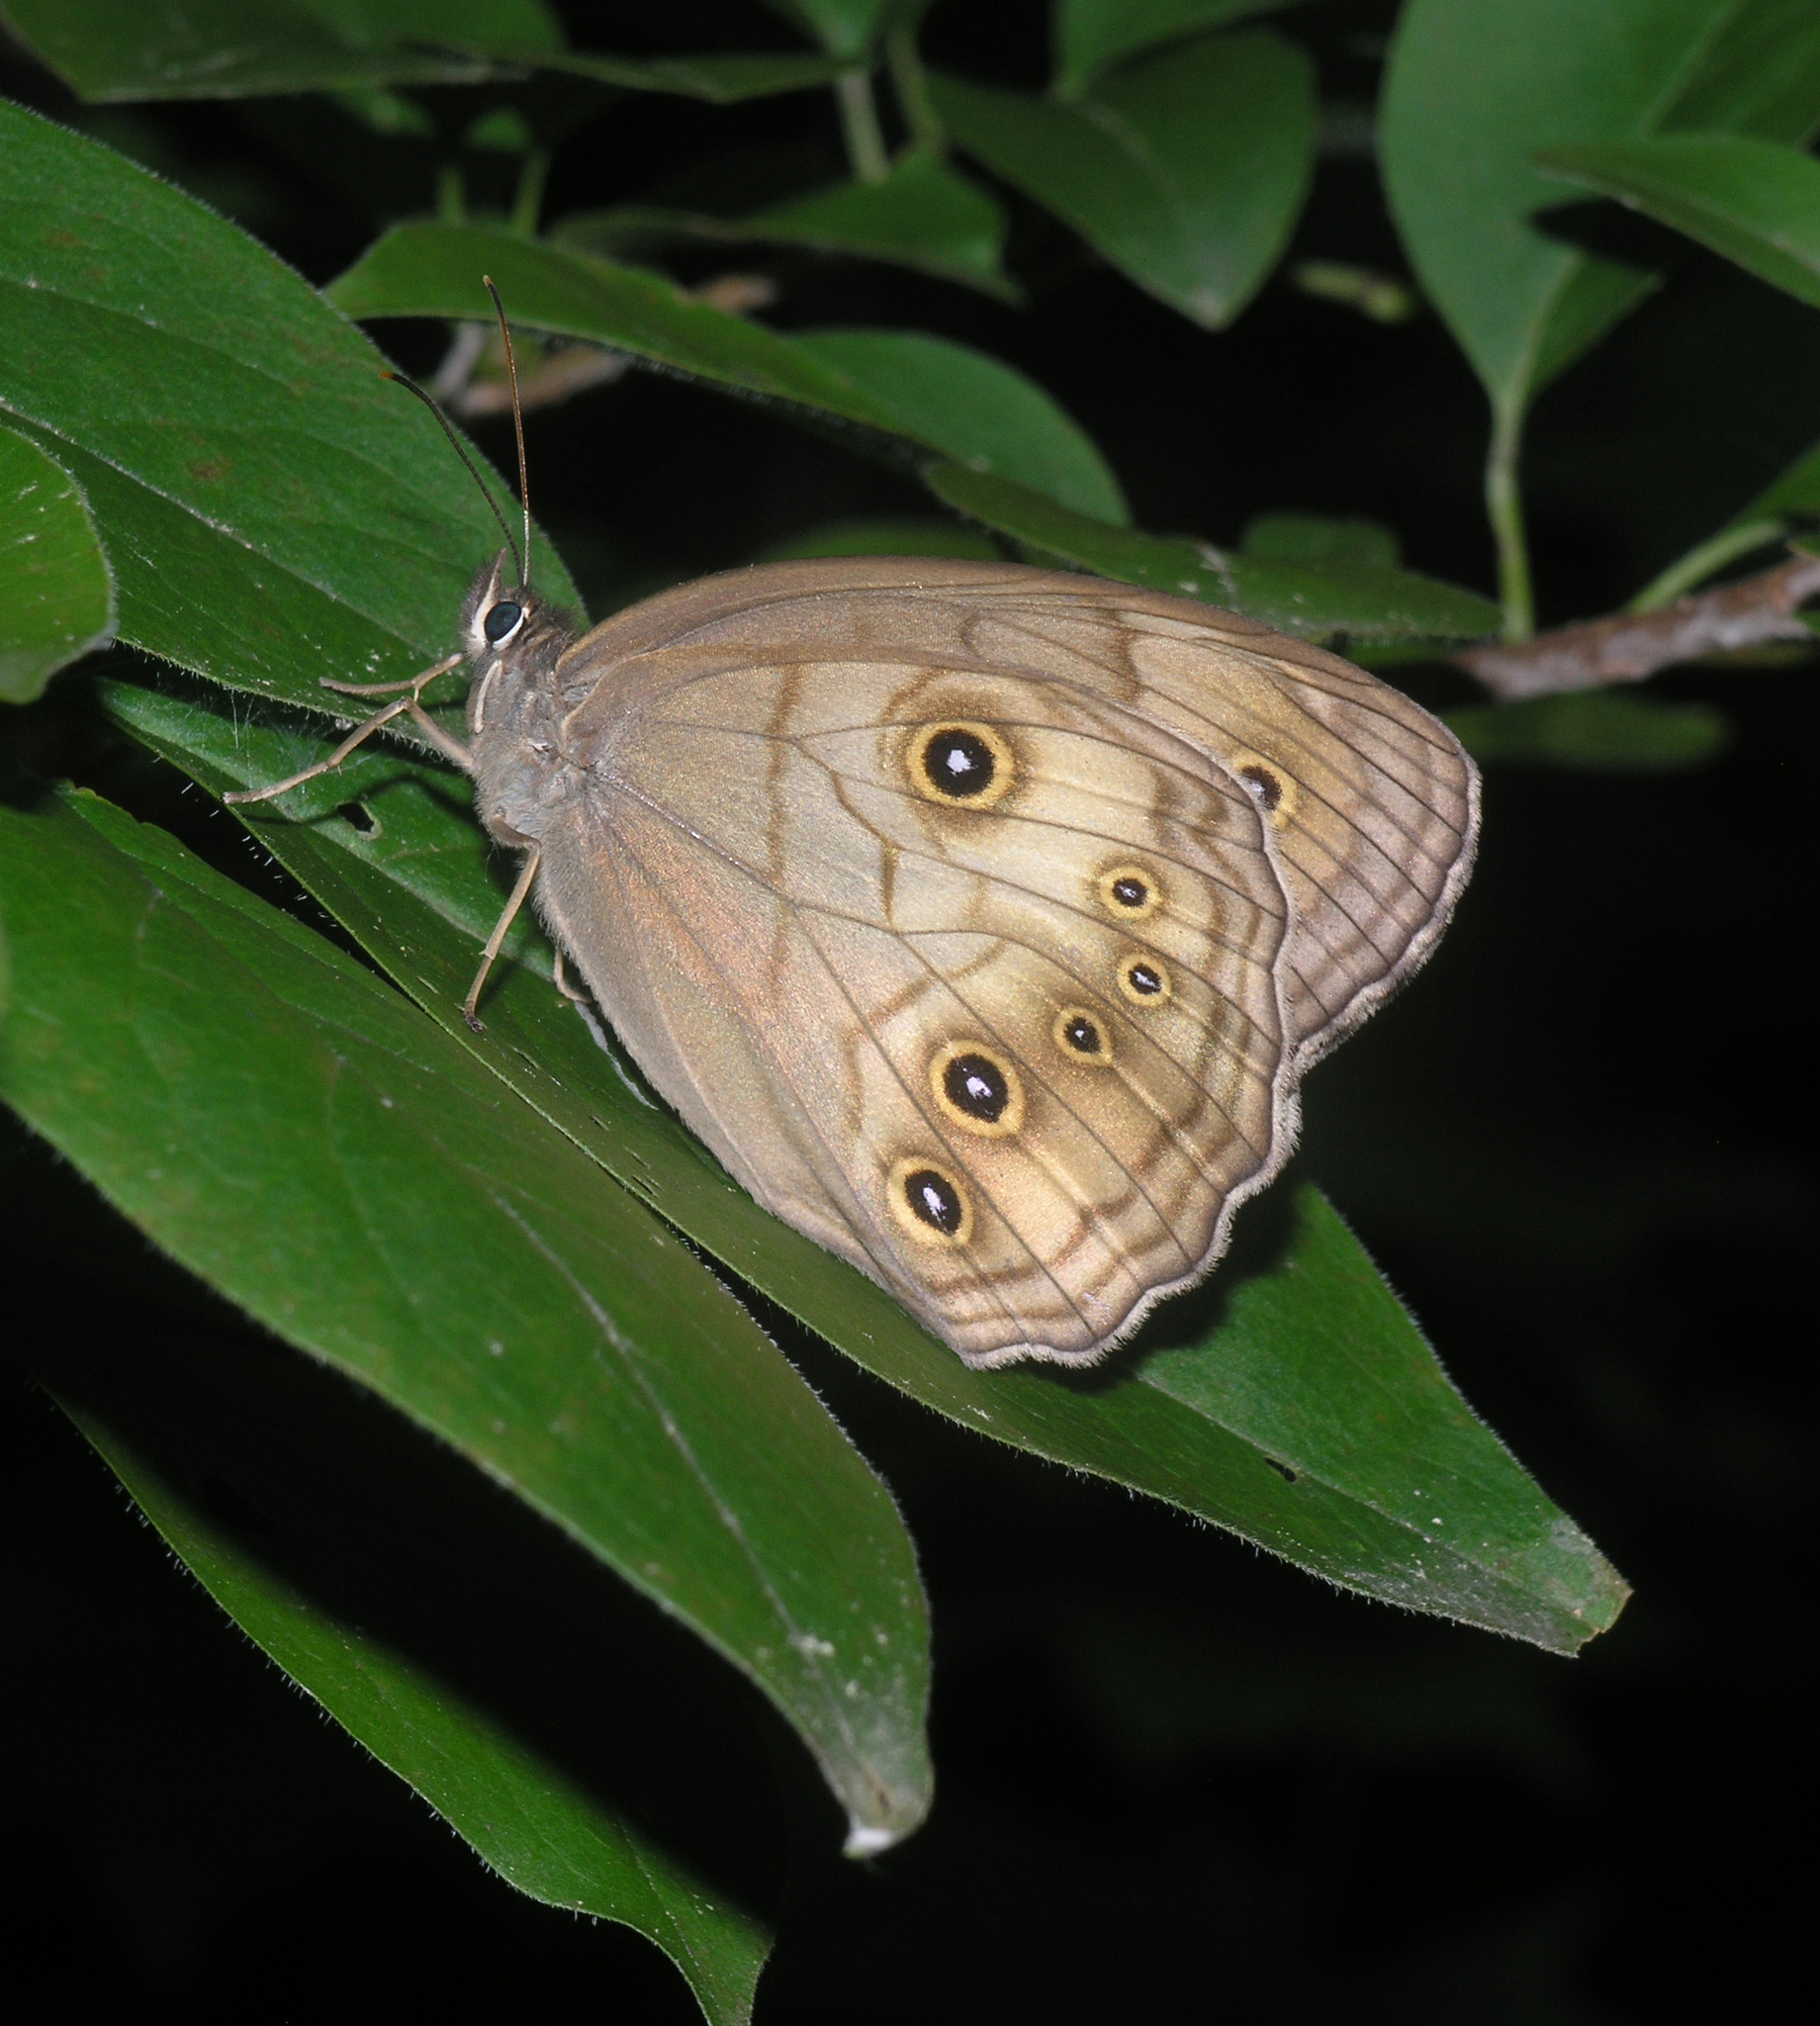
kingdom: Animalia
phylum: Arthropoda
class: Insecta
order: Lepidoptera
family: Nymphalidae
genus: Ninguta
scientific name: Ninguta schrenckii
